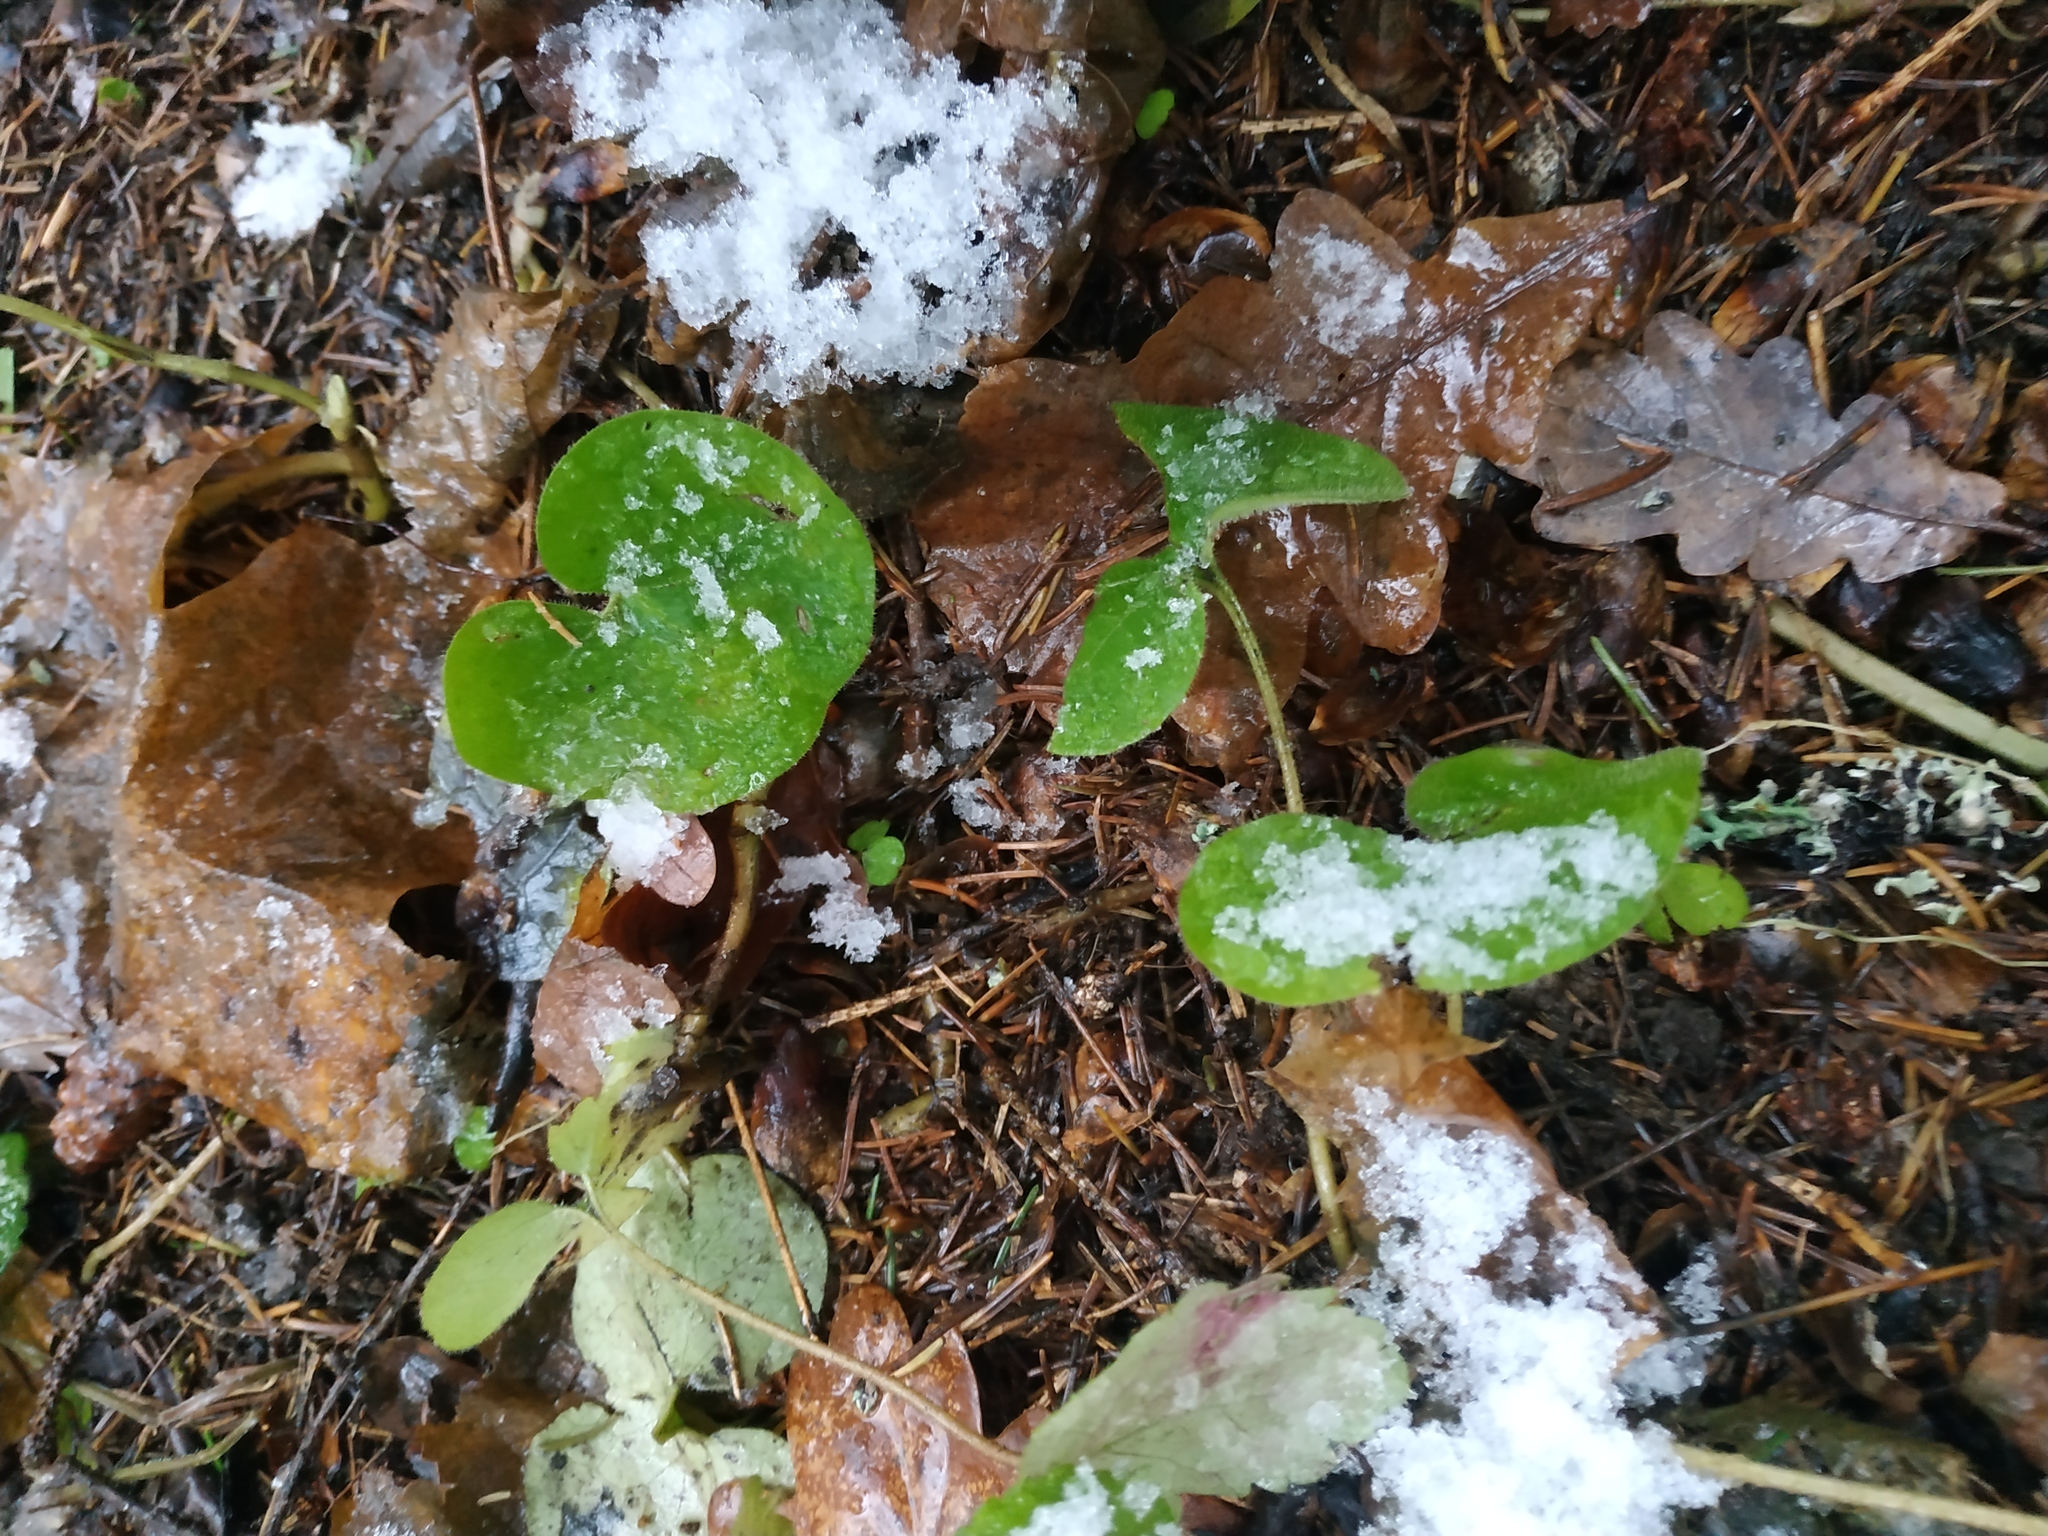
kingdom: Plantae
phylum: Tracheophyta
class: Magnoliopsida
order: Piperales
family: Aristolochiaceae
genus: Asarum
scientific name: Asarum europaeum
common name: Asarabacca
